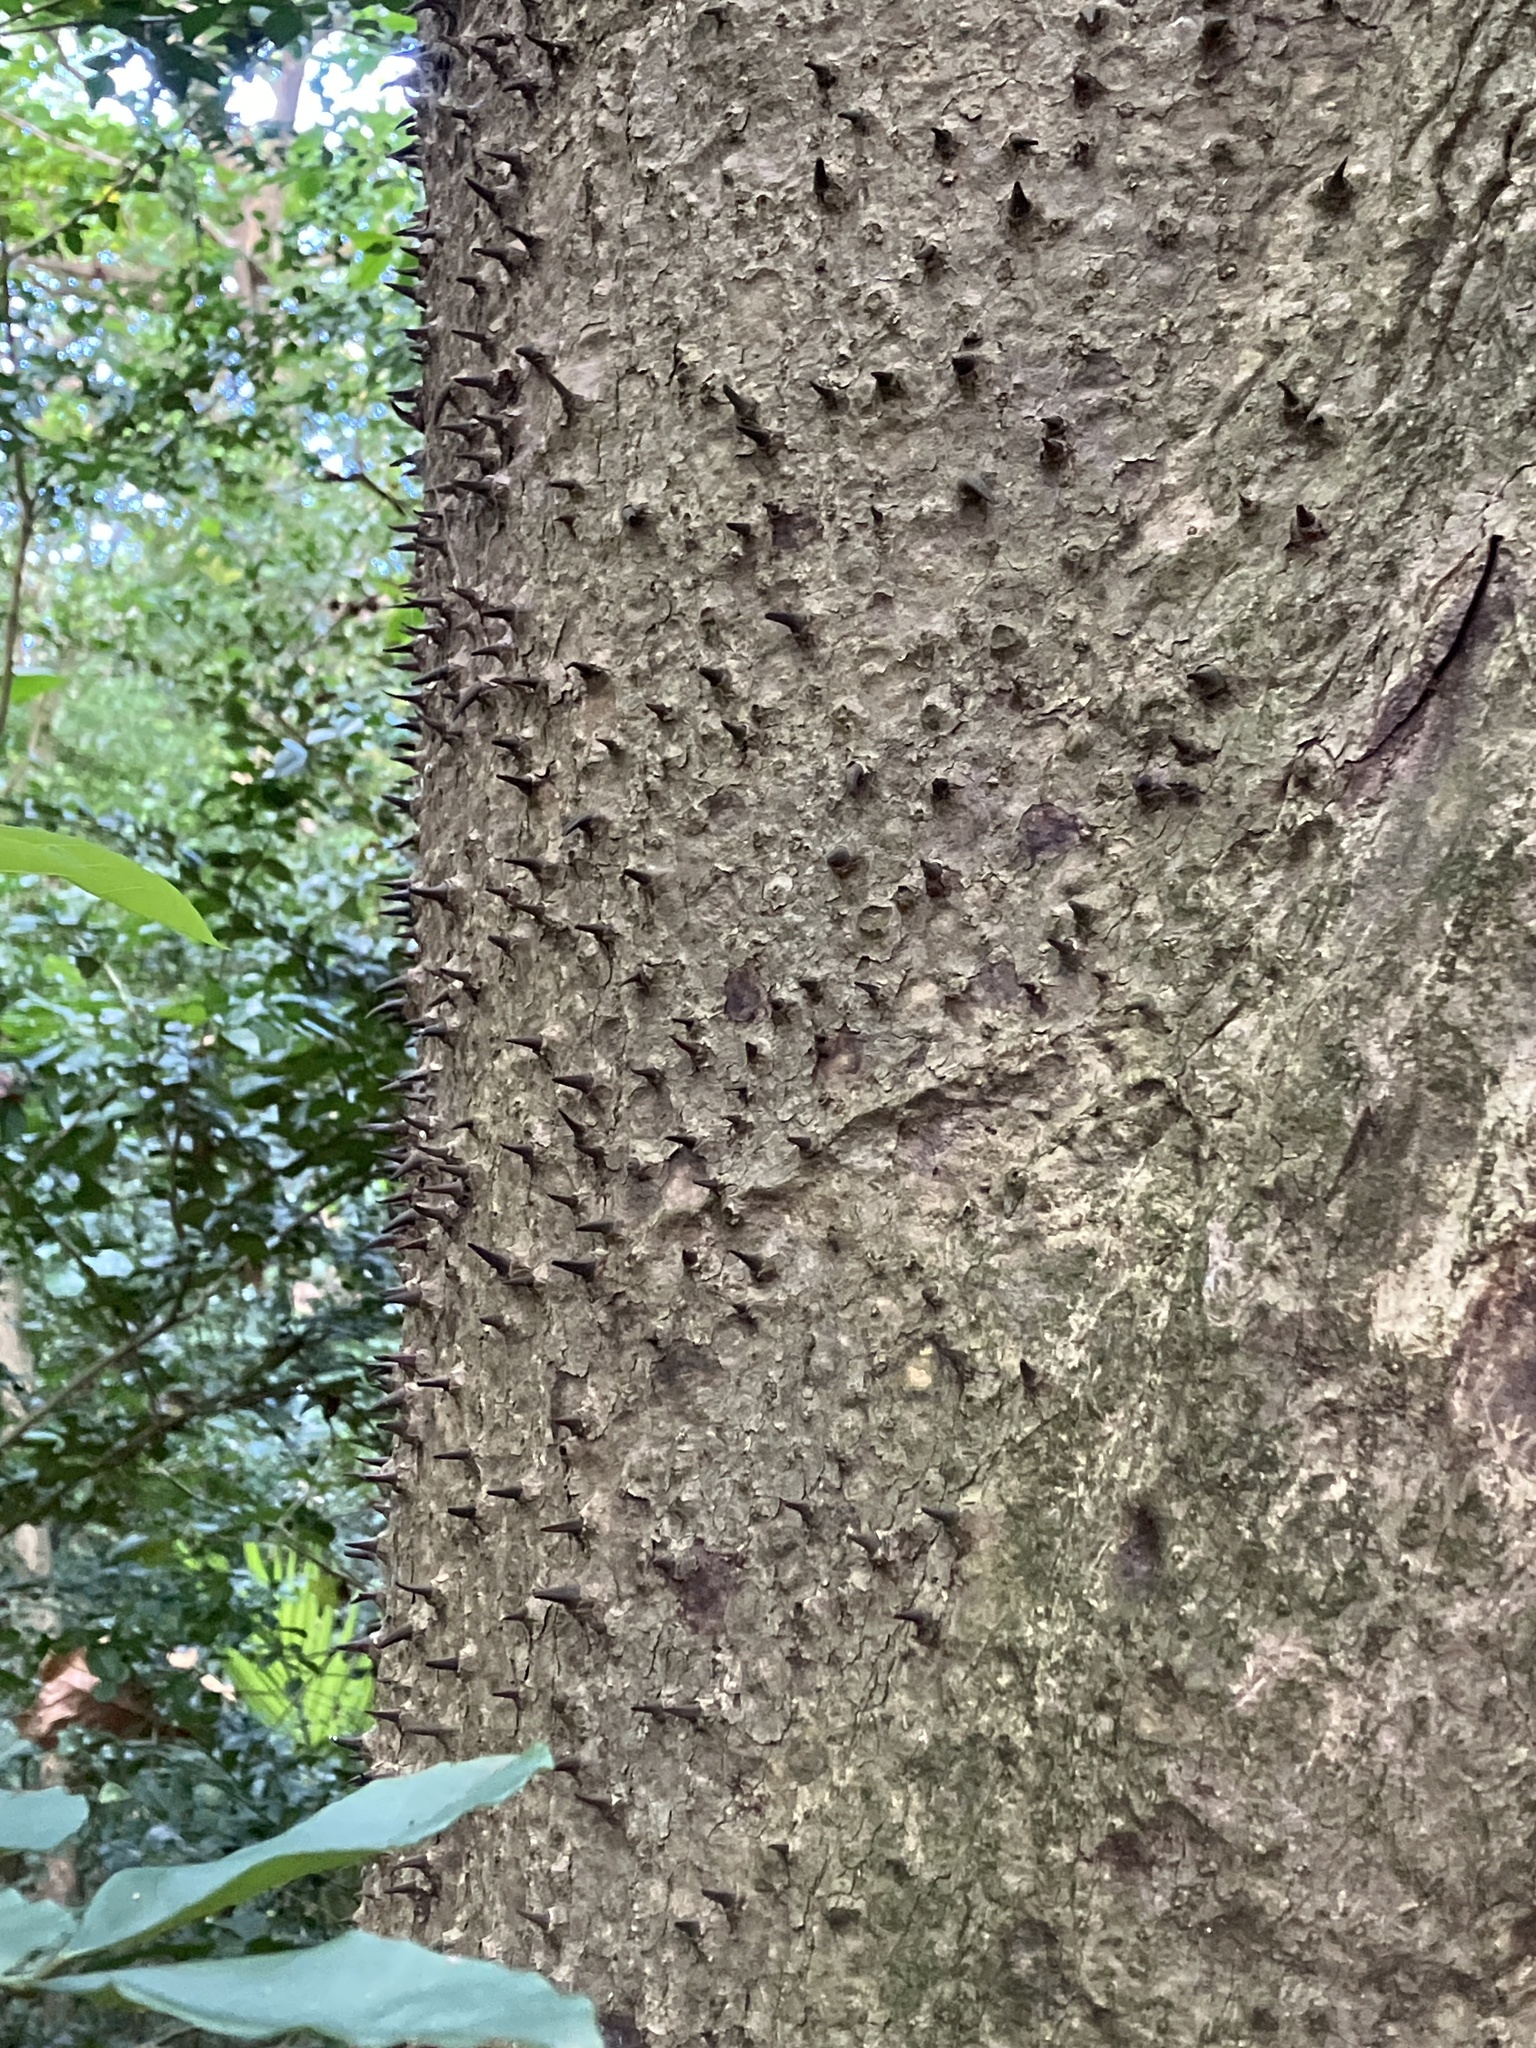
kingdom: Plantae
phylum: Tracheophyta
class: Magnoliopsida
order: Malpighiales
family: Euphorbiaceae
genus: Hura
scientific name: Hura crepitans
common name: Sandboxtree
